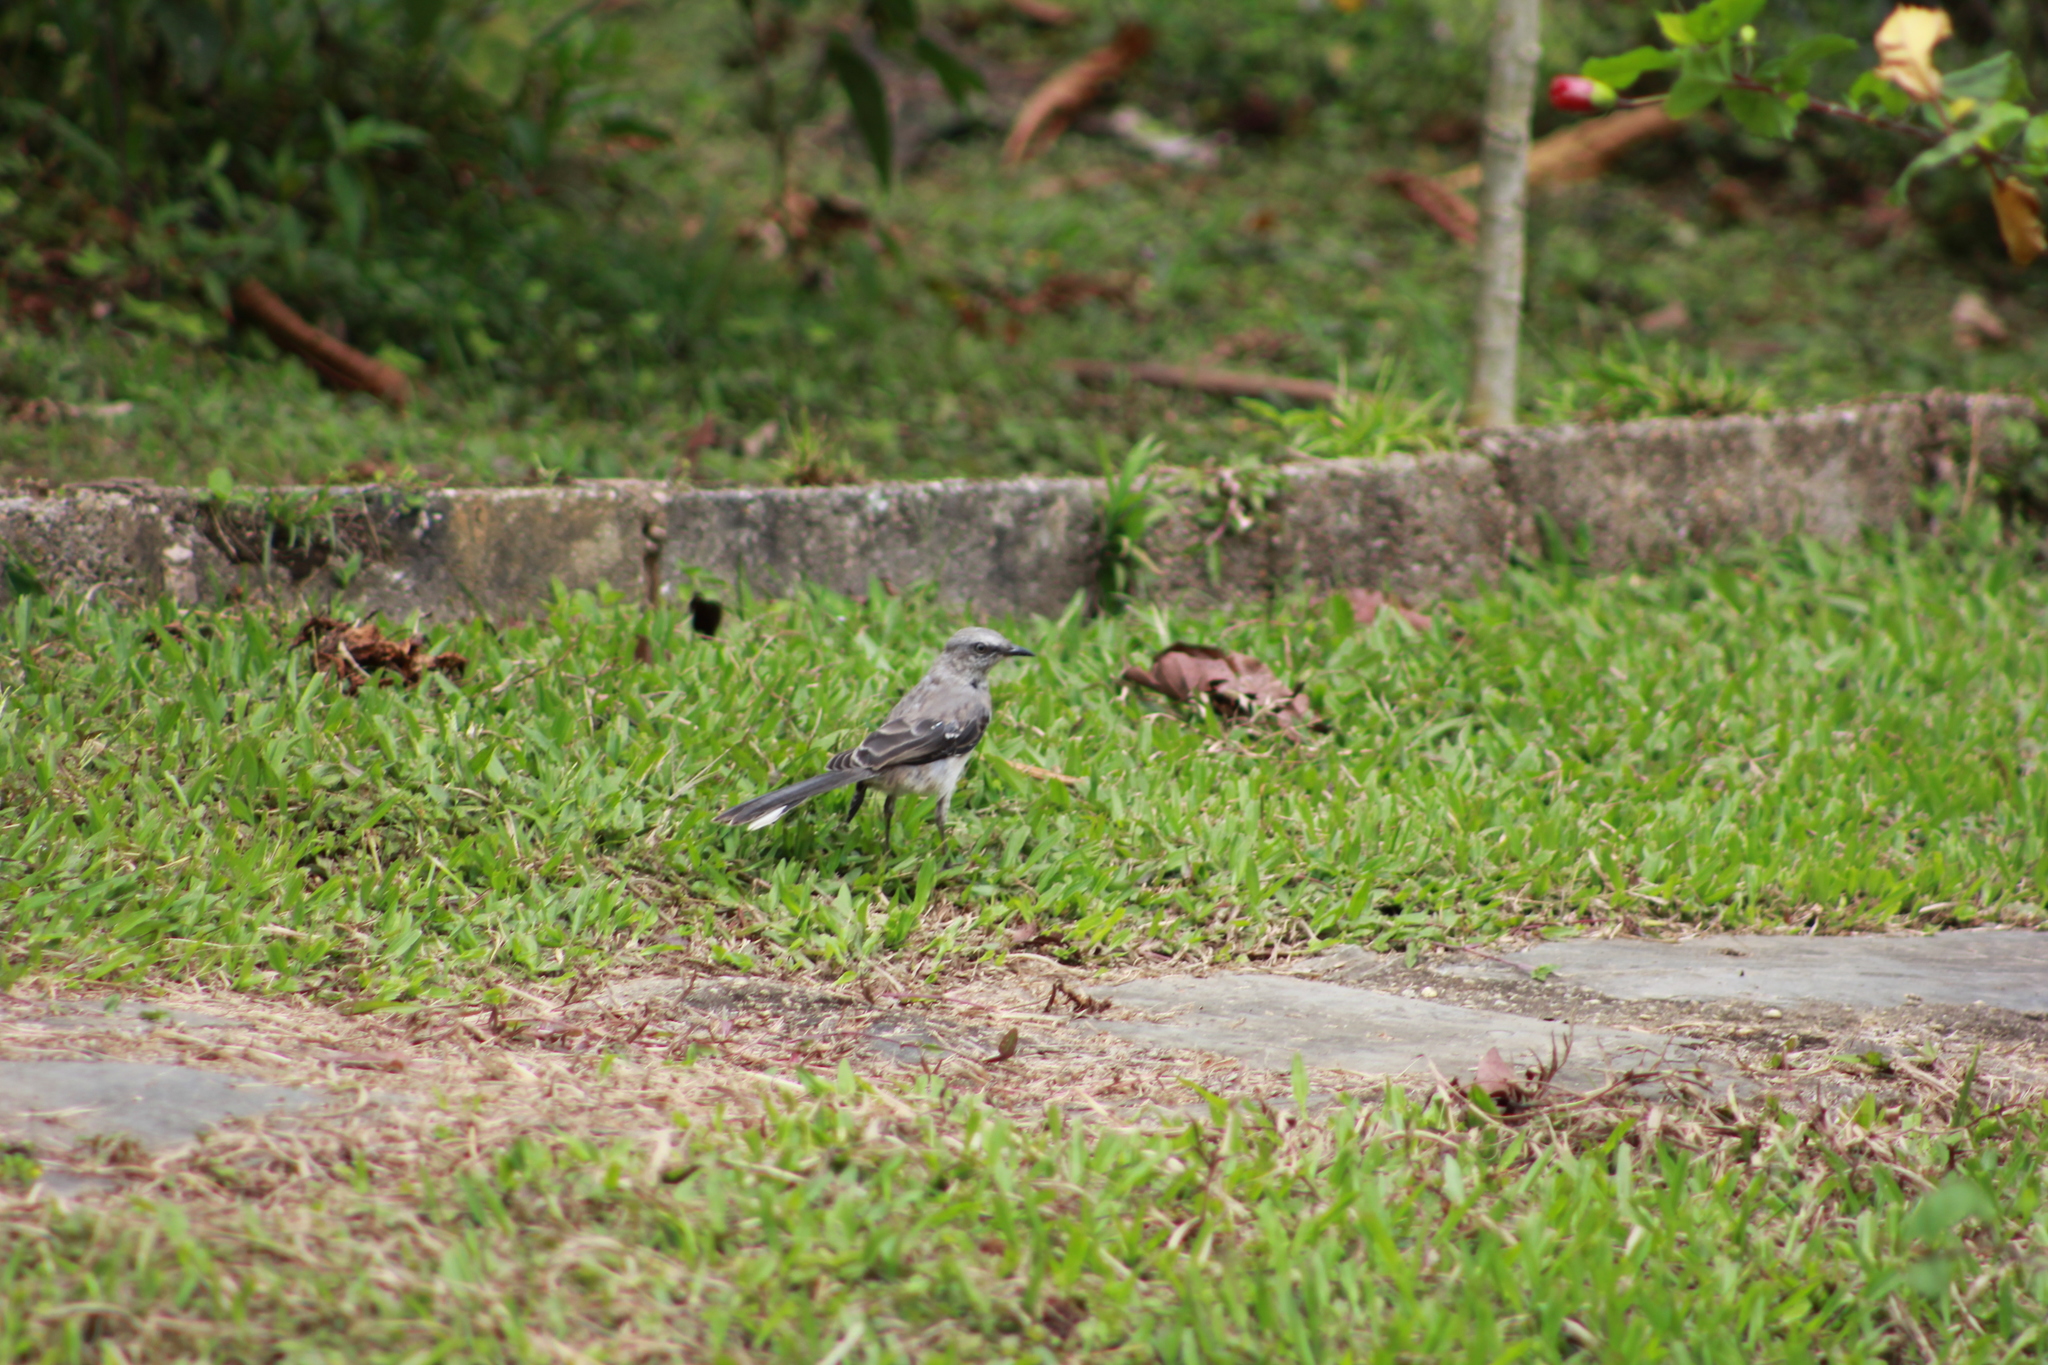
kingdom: Animalia
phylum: Chordata
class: Aves
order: Passeriformes
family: Mimidae
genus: Mimus
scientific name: Mimus gilvus
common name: Tropical mockingbird
